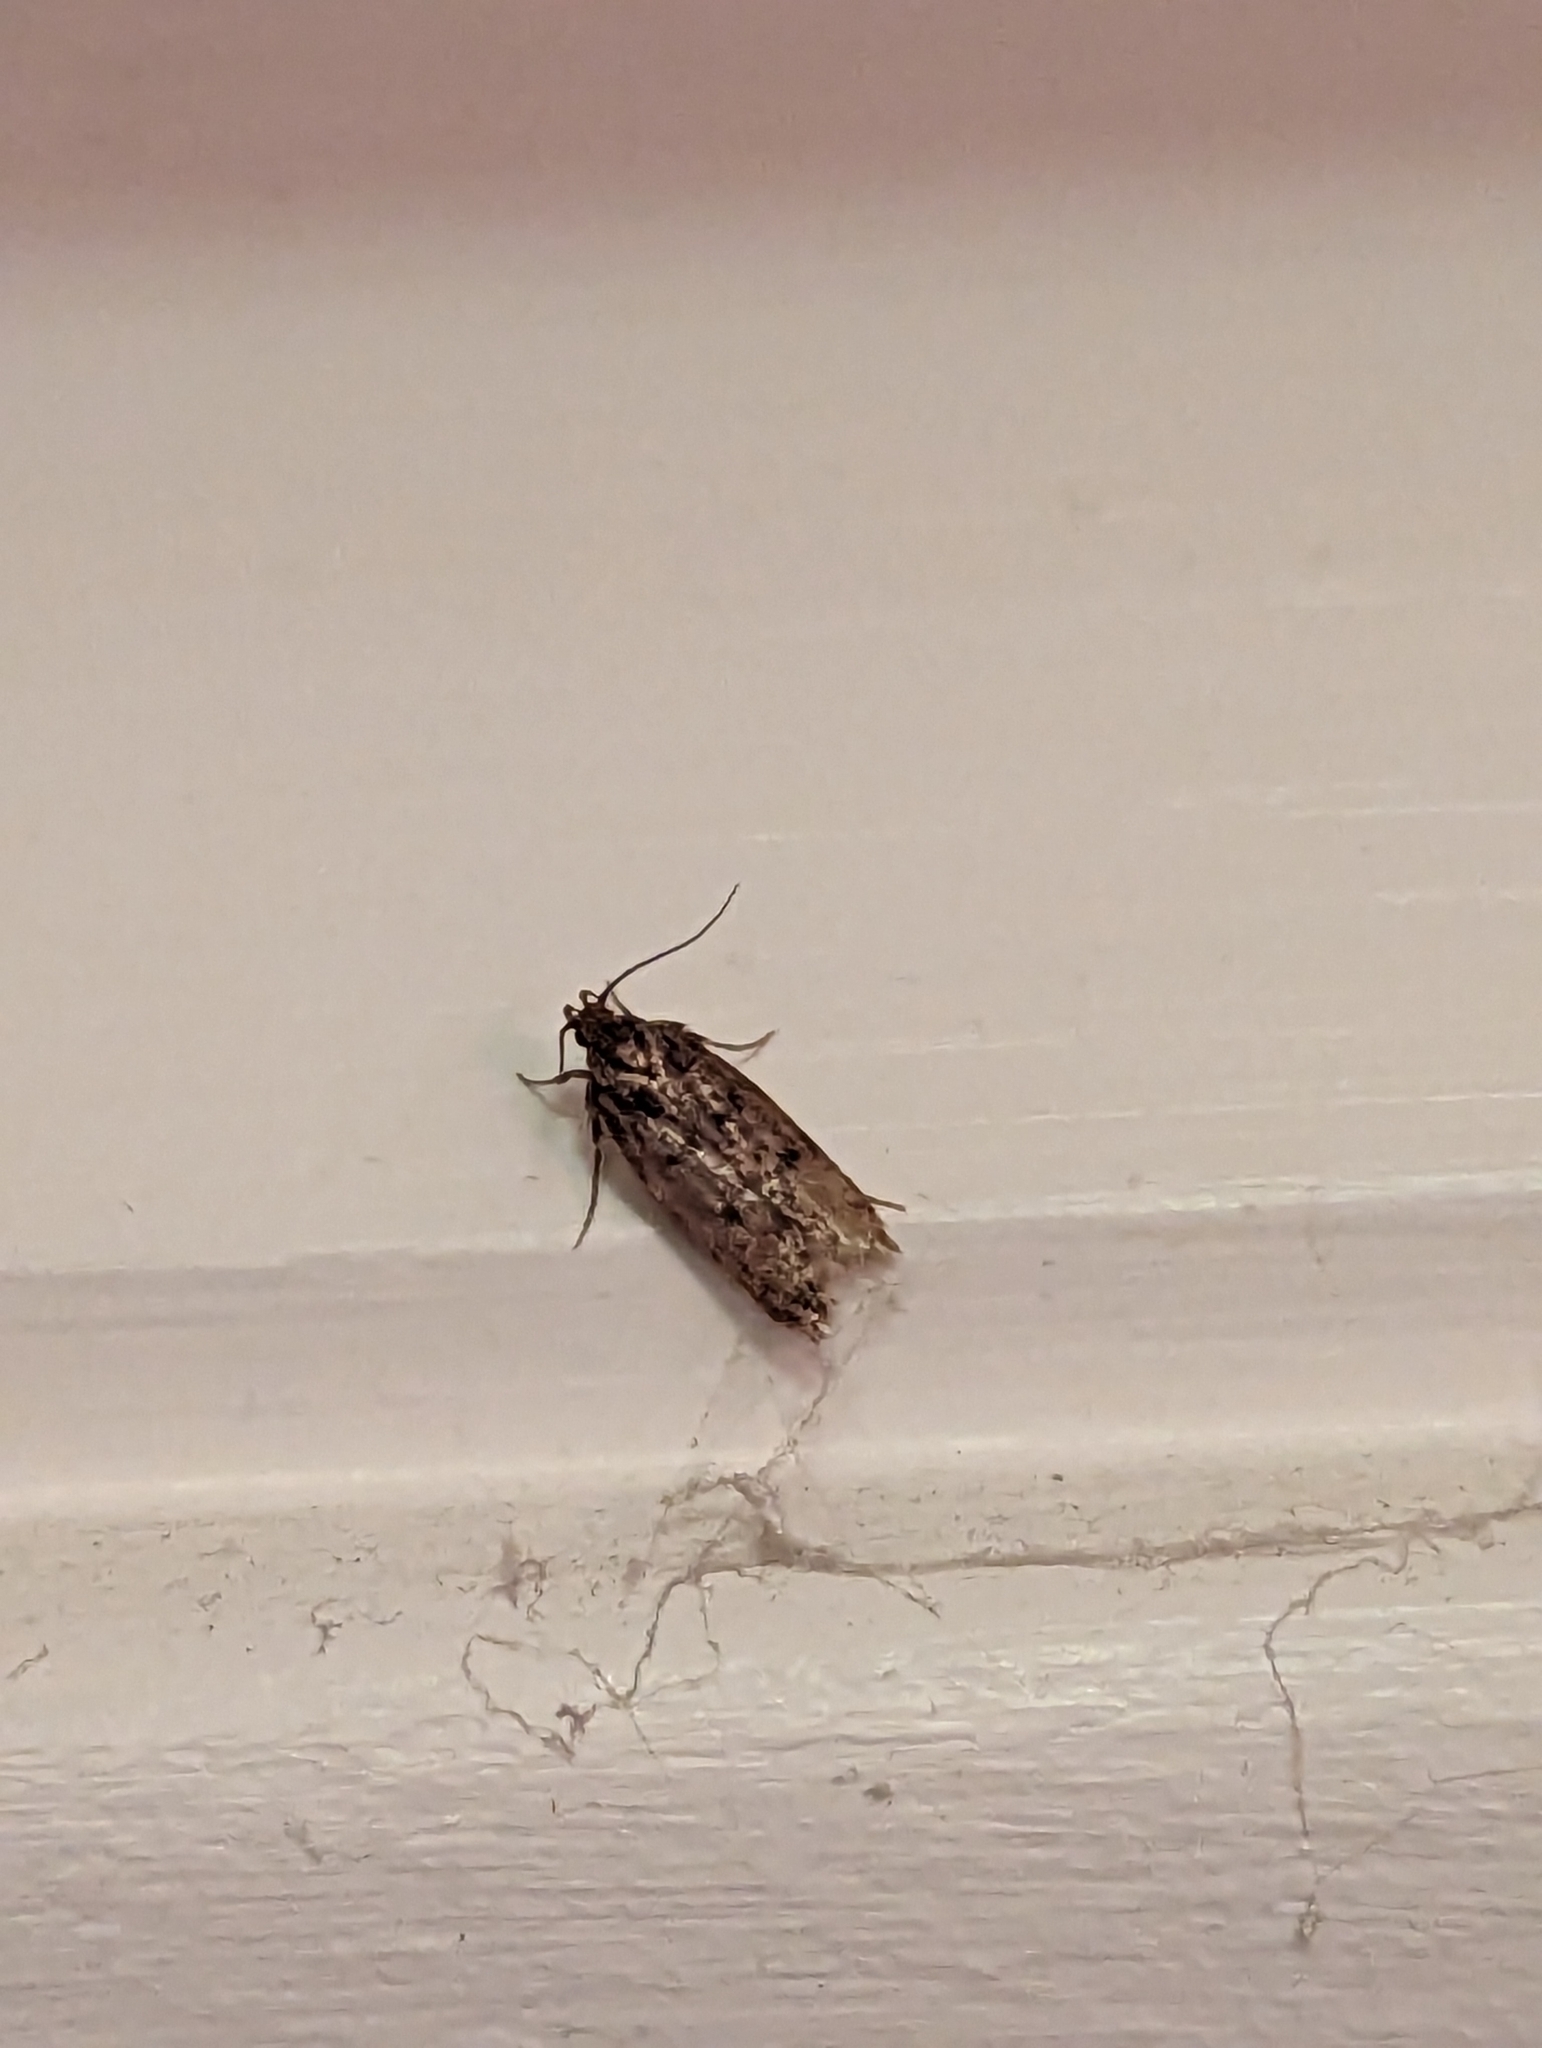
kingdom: Animalia
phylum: Arthropoda
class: Insecta
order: Lepidoptera
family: Oecophoridae
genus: Hofmannophila
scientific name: Hofmannophila pseudospretella
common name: Brown house moth
